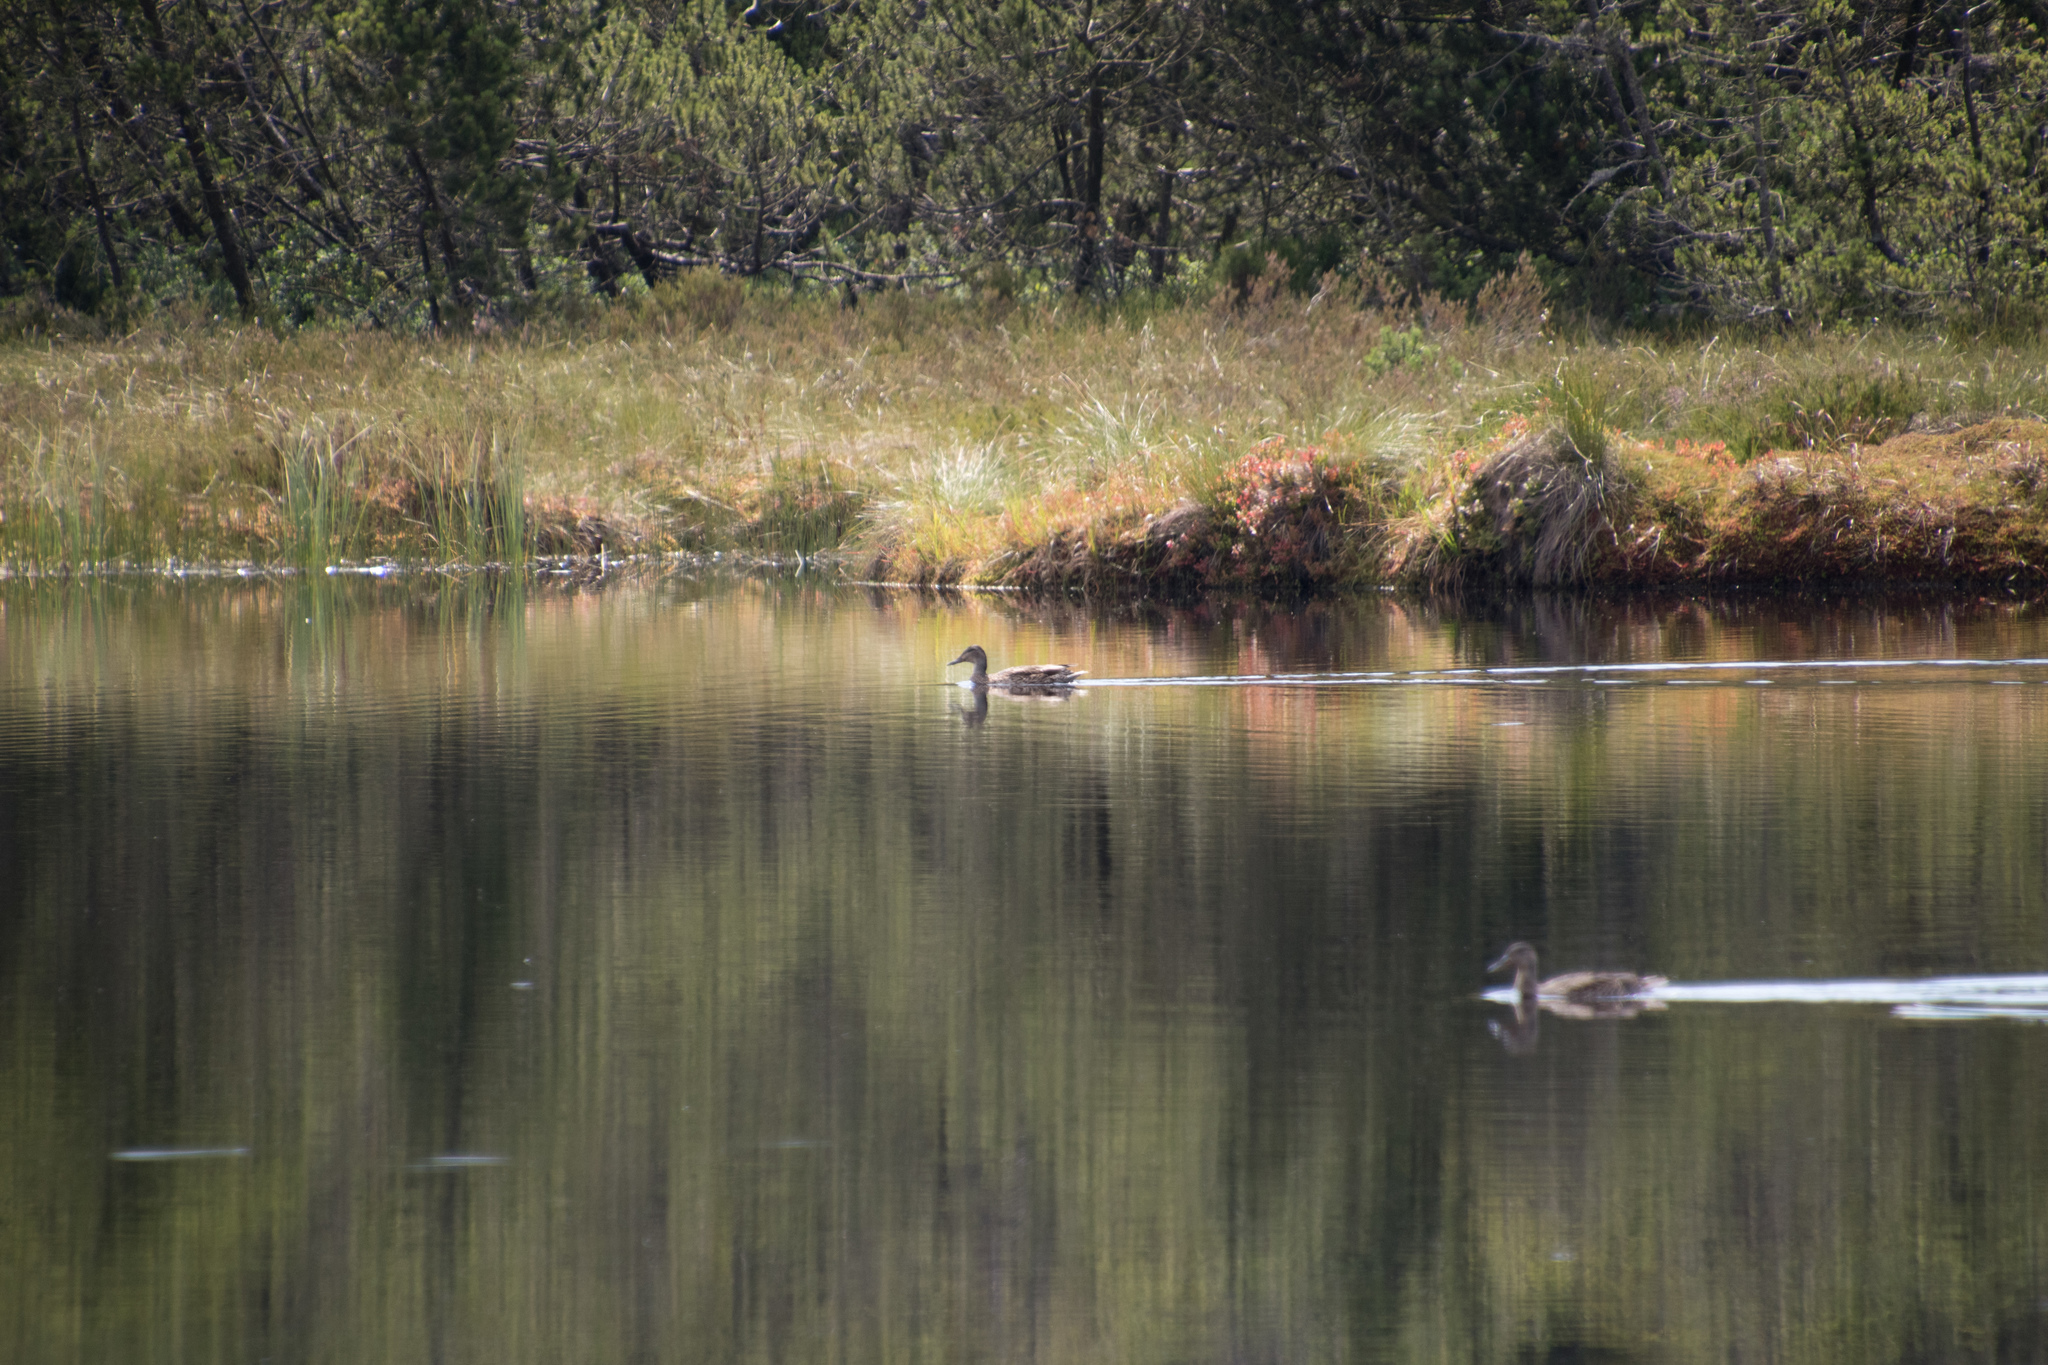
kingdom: Animalia
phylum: Chordata
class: Aves
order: Anseriformes
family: Anatidae
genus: Anas
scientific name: Anas platyrhynchos
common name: Mallard
